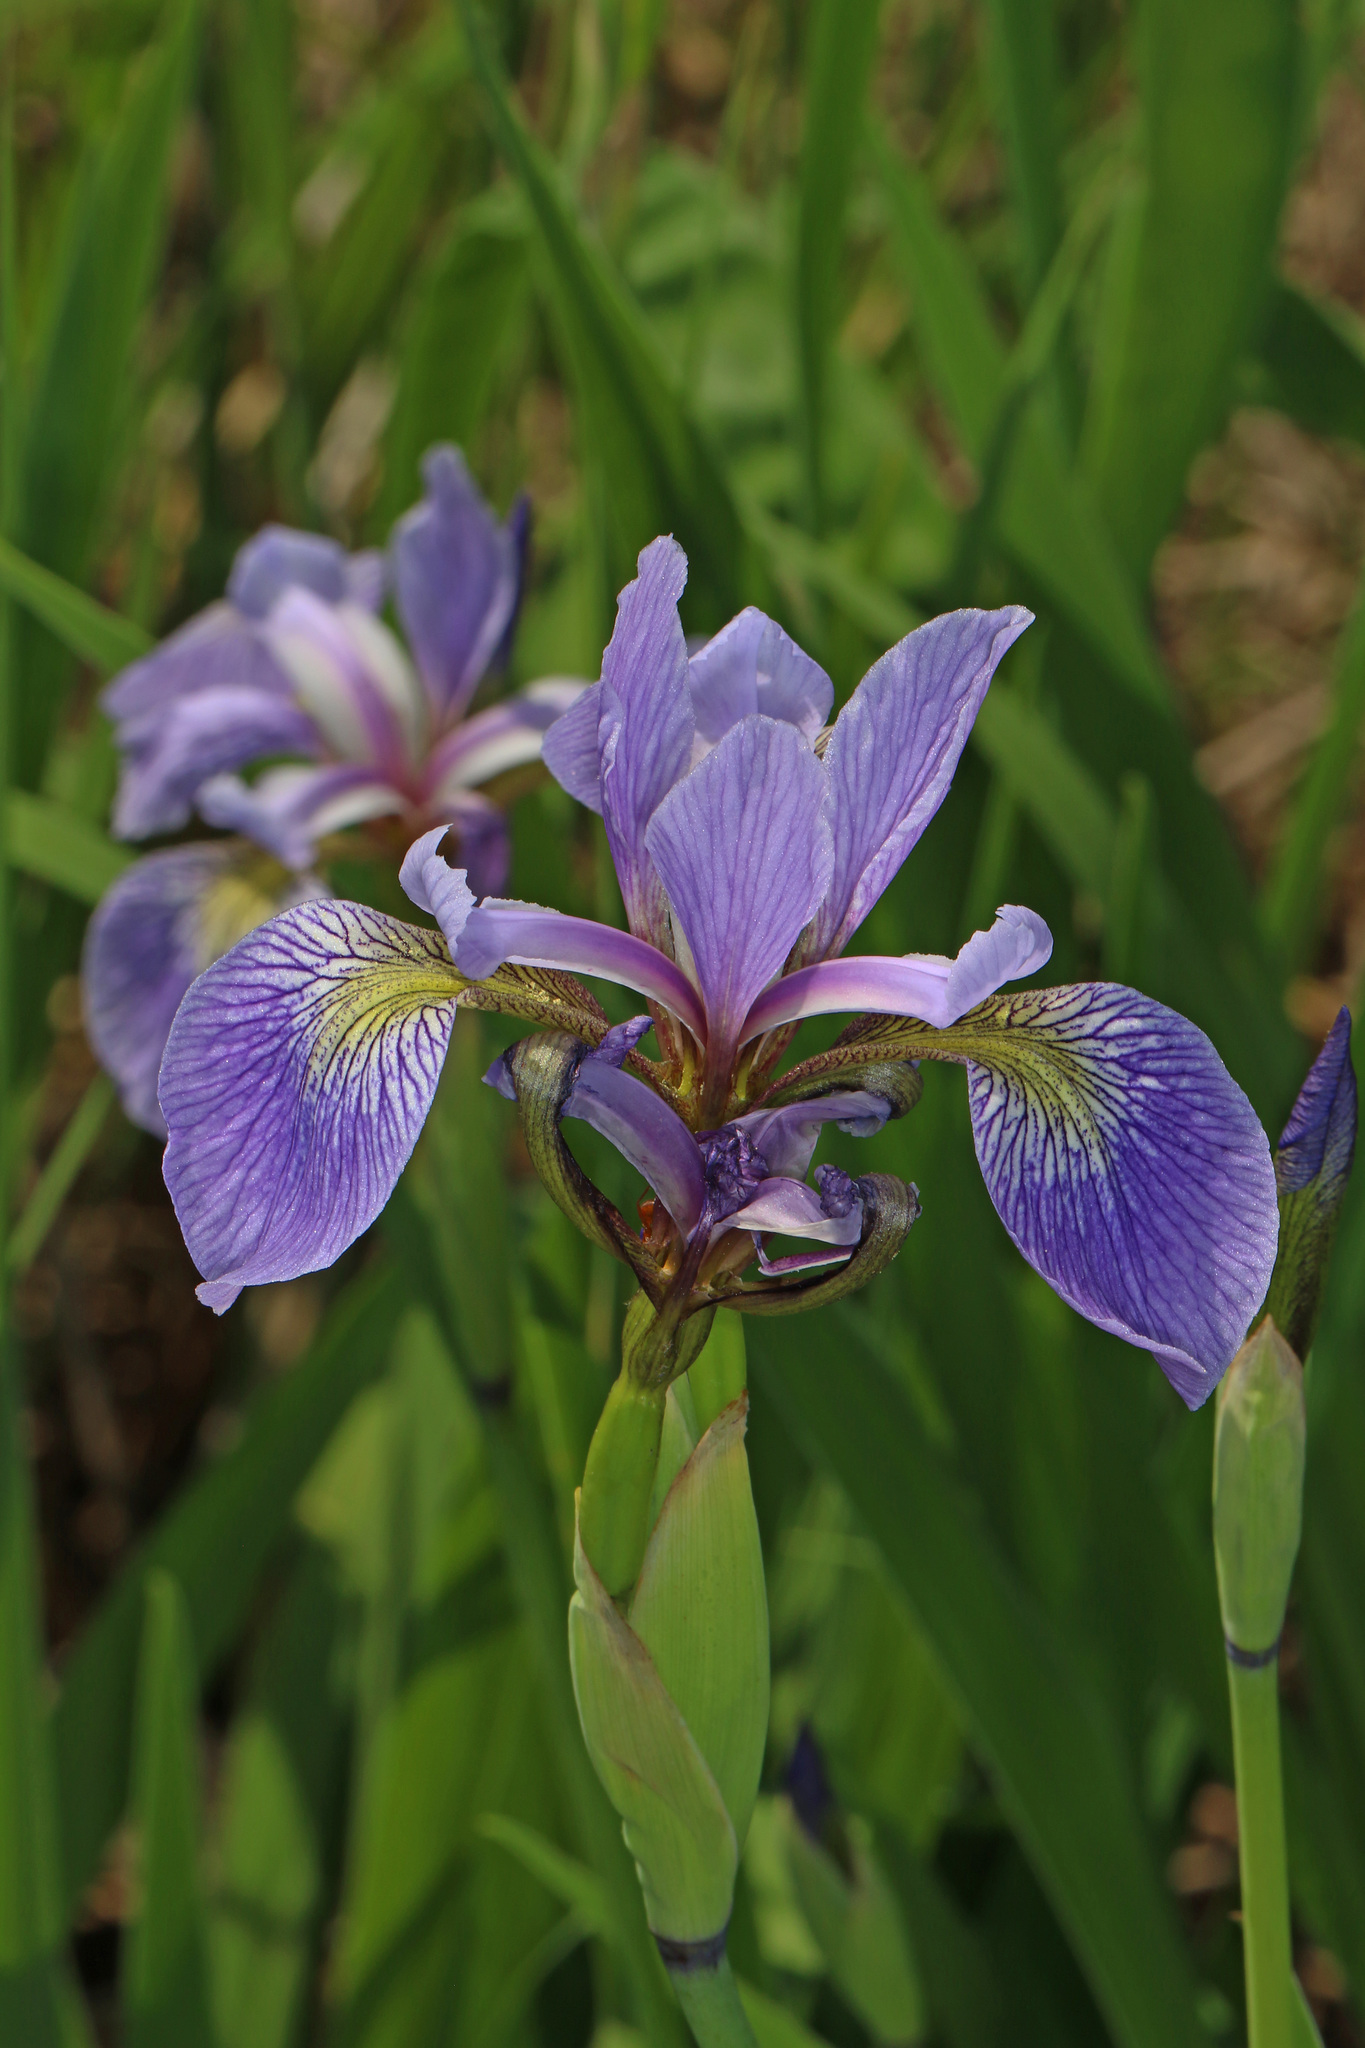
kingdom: Plantae
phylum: Tracheophyta
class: Liliopsida
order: Asparagales
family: Iridaceae
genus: Iris
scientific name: Iris versicolor
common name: Purple iris
